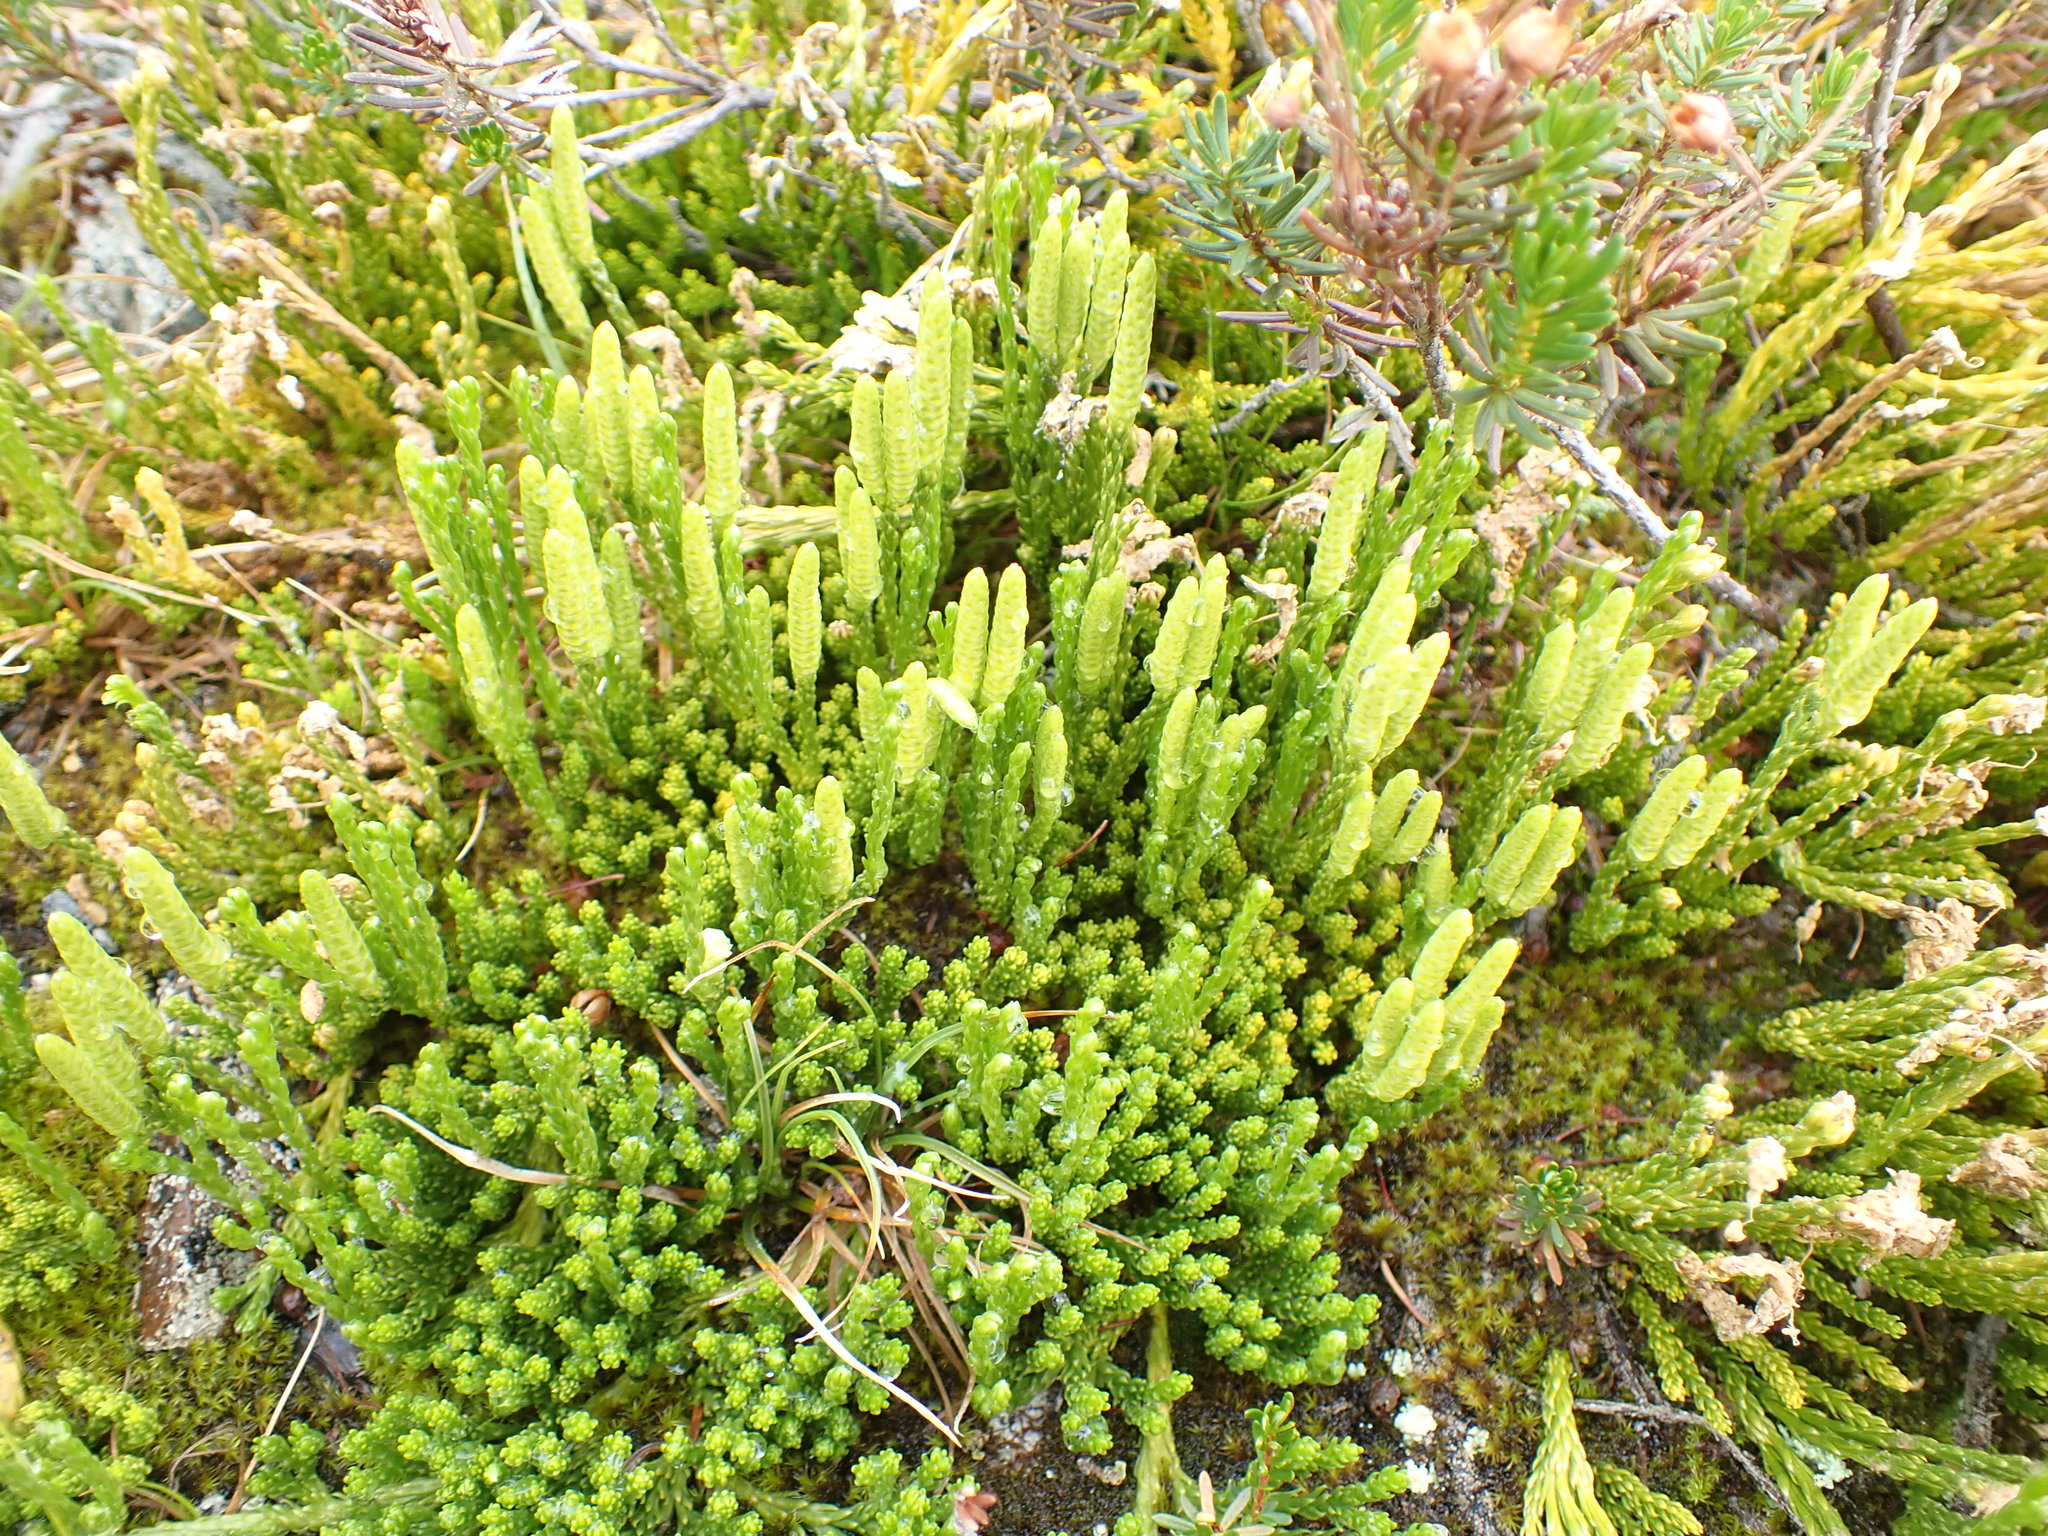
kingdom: Plantae
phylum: Tracheophyta
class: Lycopodiopsida
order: Lycopodiales
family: Lycopodiaceae
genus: Diphasiastrum
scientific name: Diphasiastrum sitchense
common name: Alaska clubmoss
